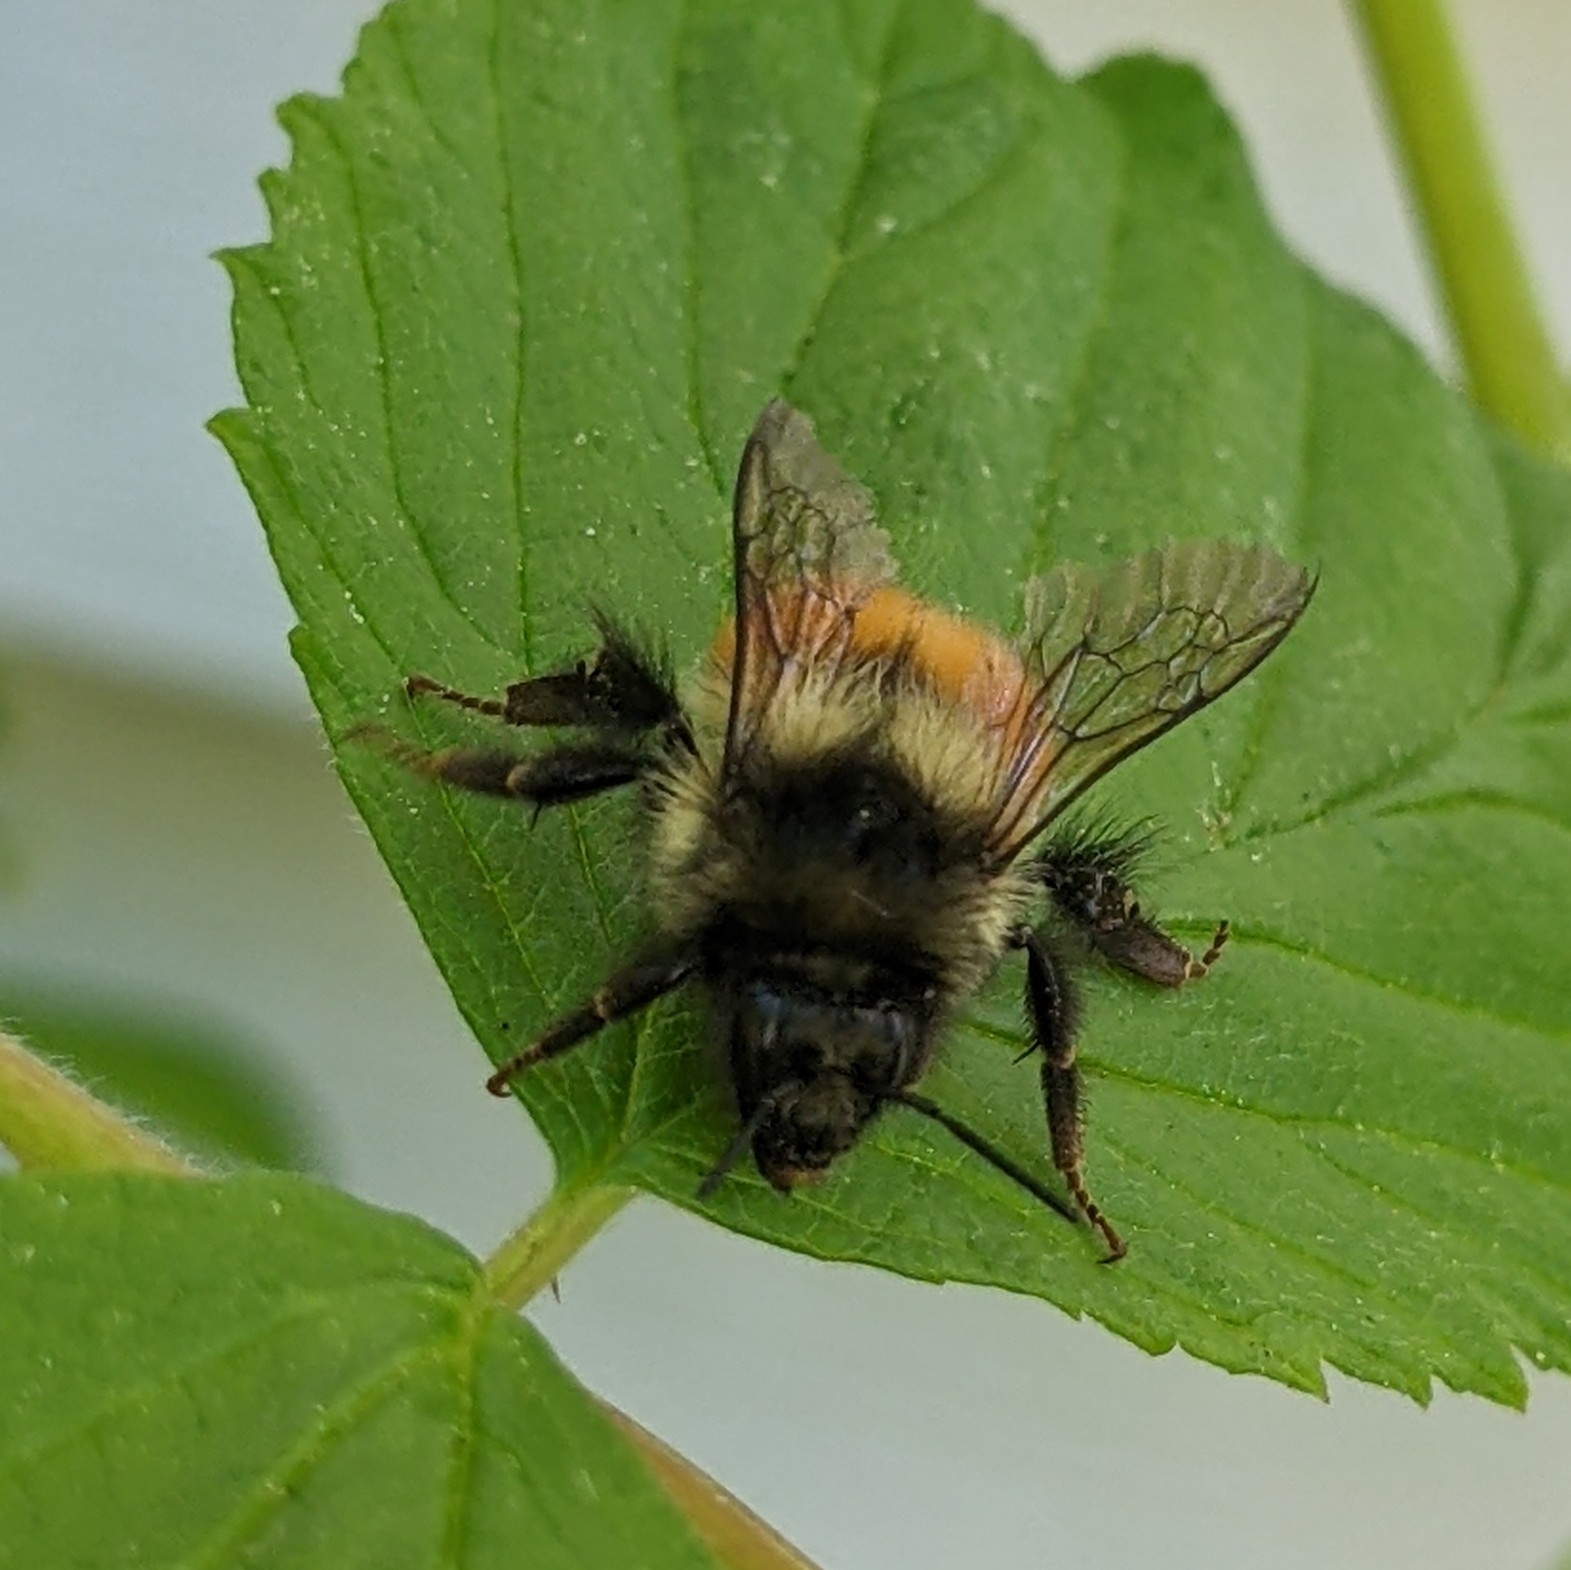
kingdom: Animalia
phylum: Arthropoda
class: Insecta
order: Hymenoptera
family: Apidae
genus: Bombus
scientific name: Bombus melanopygus
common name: Black tail bumble bee
